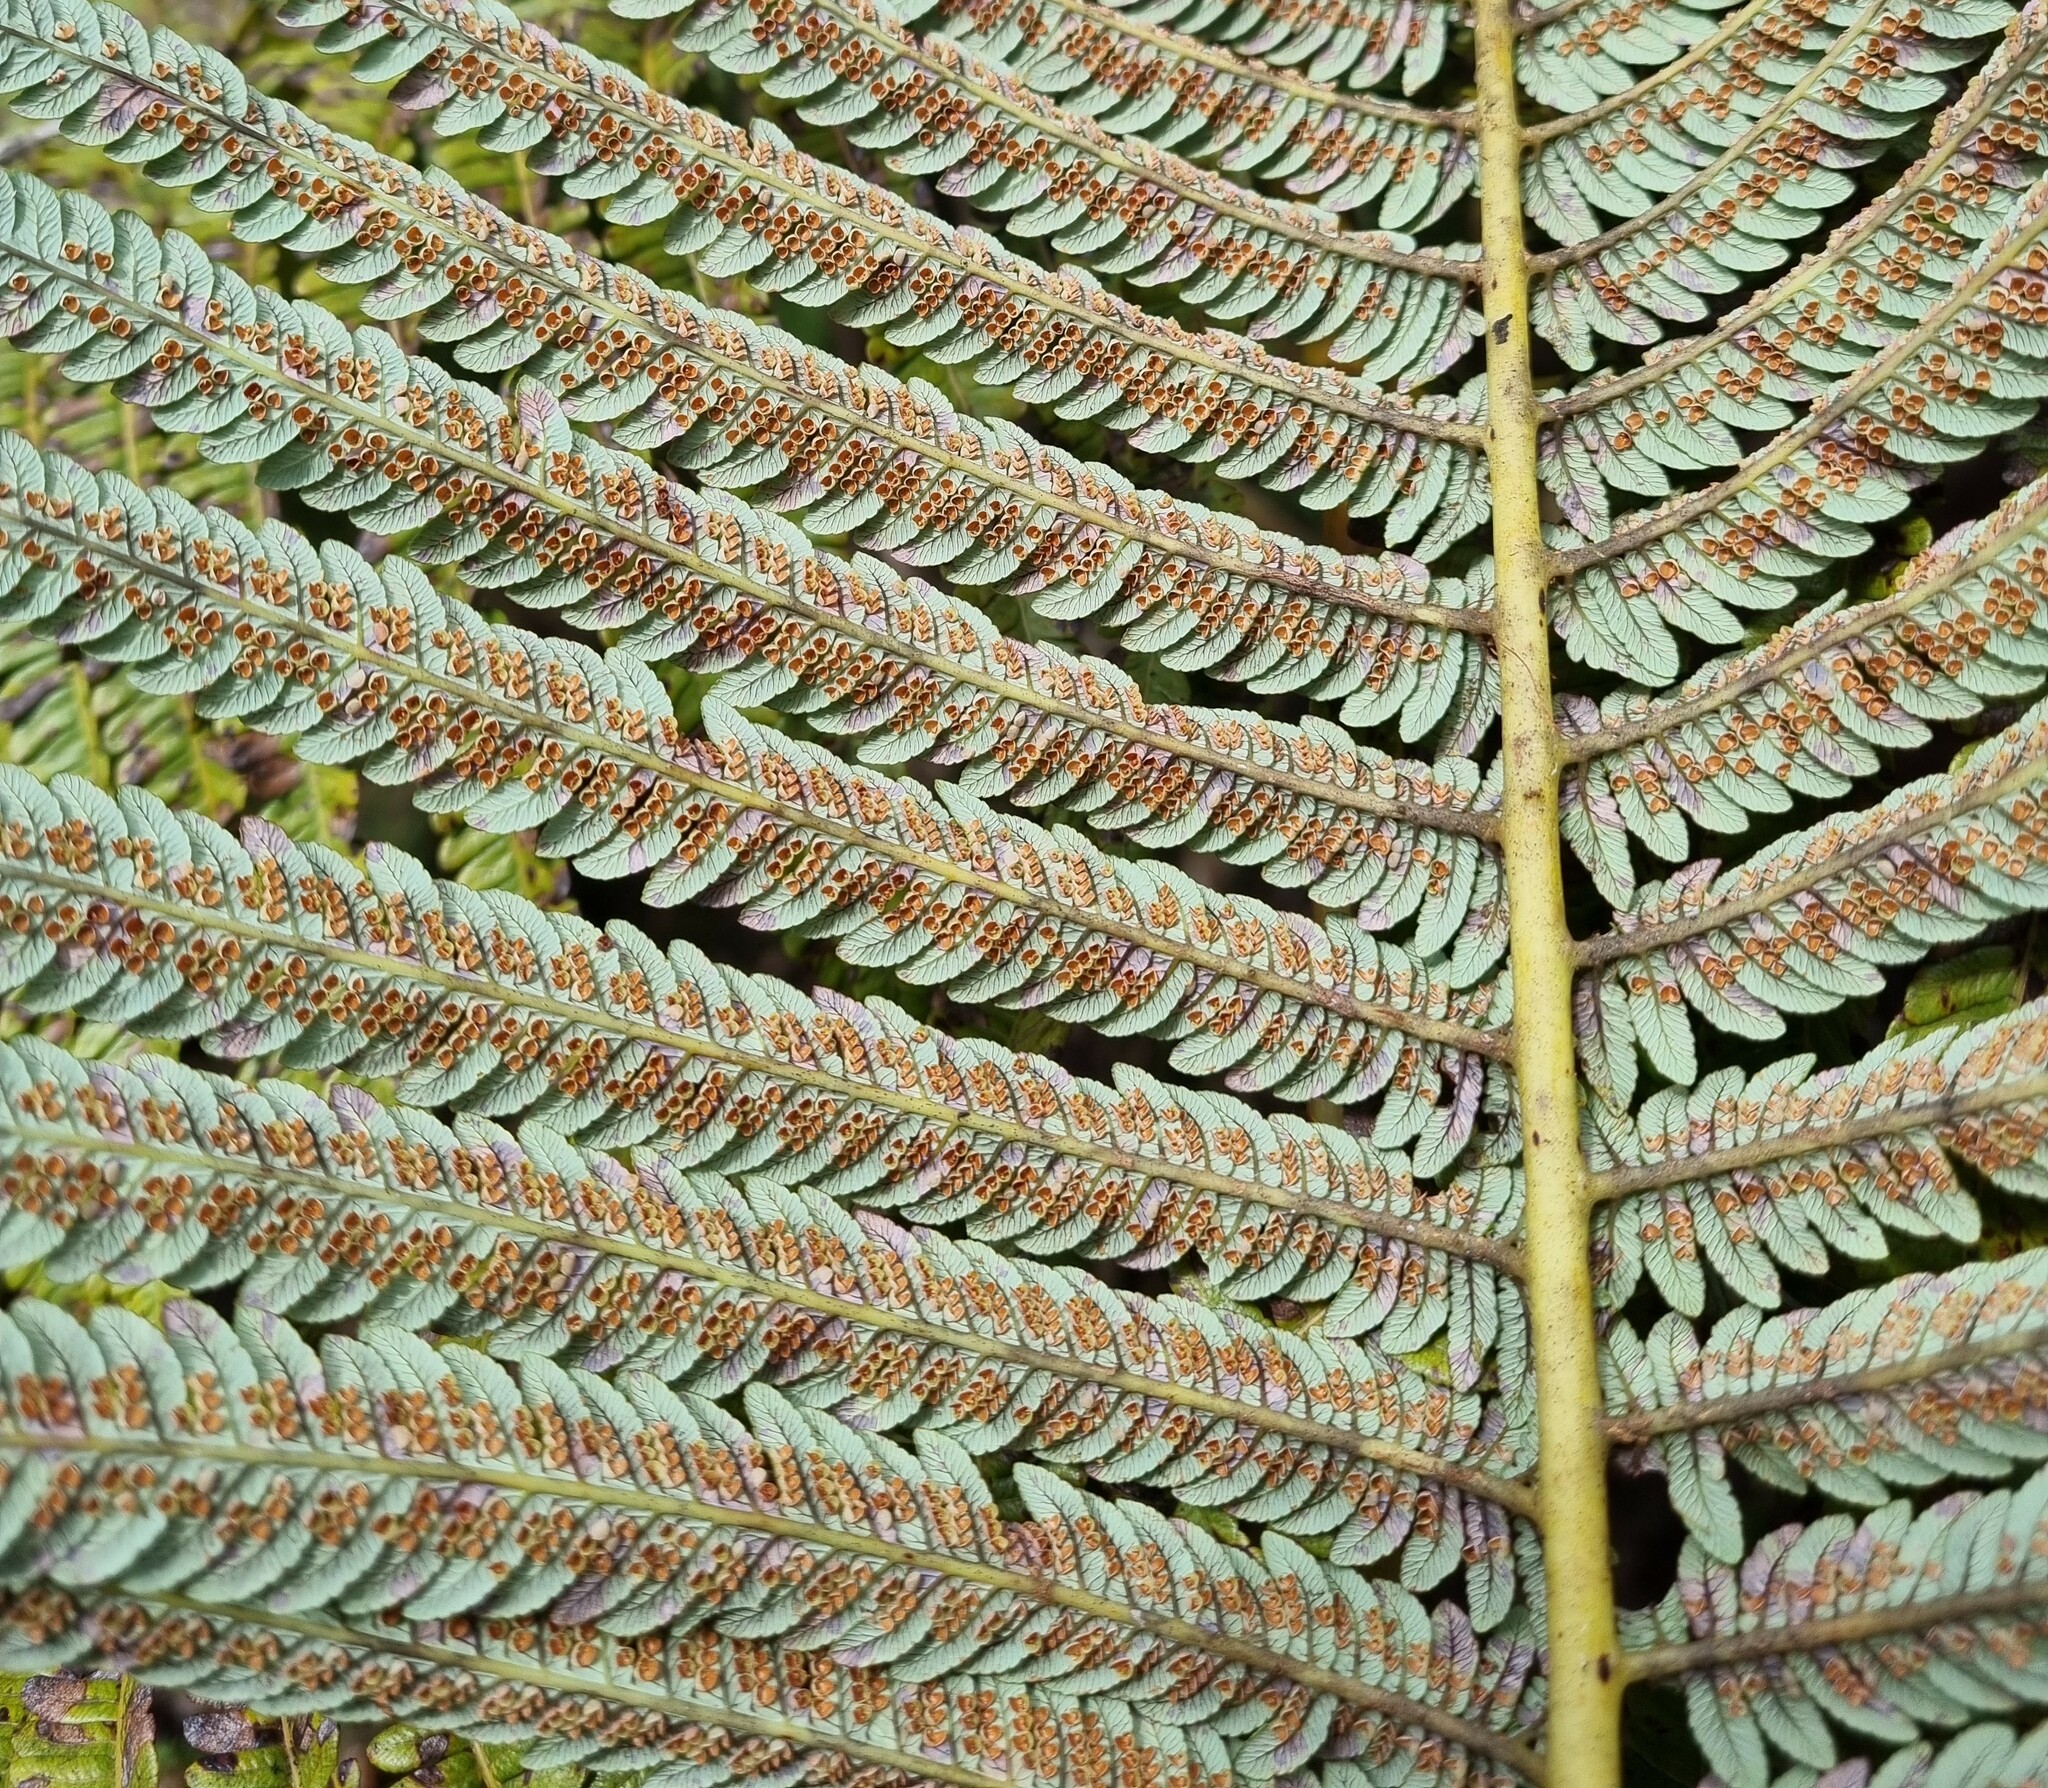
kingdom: Plantae
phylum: Tracheophyta
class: Polypodiopsida
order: Cyatheales
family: Cibotiaceae
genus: Cibotium
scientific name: Cibotium glaucum
